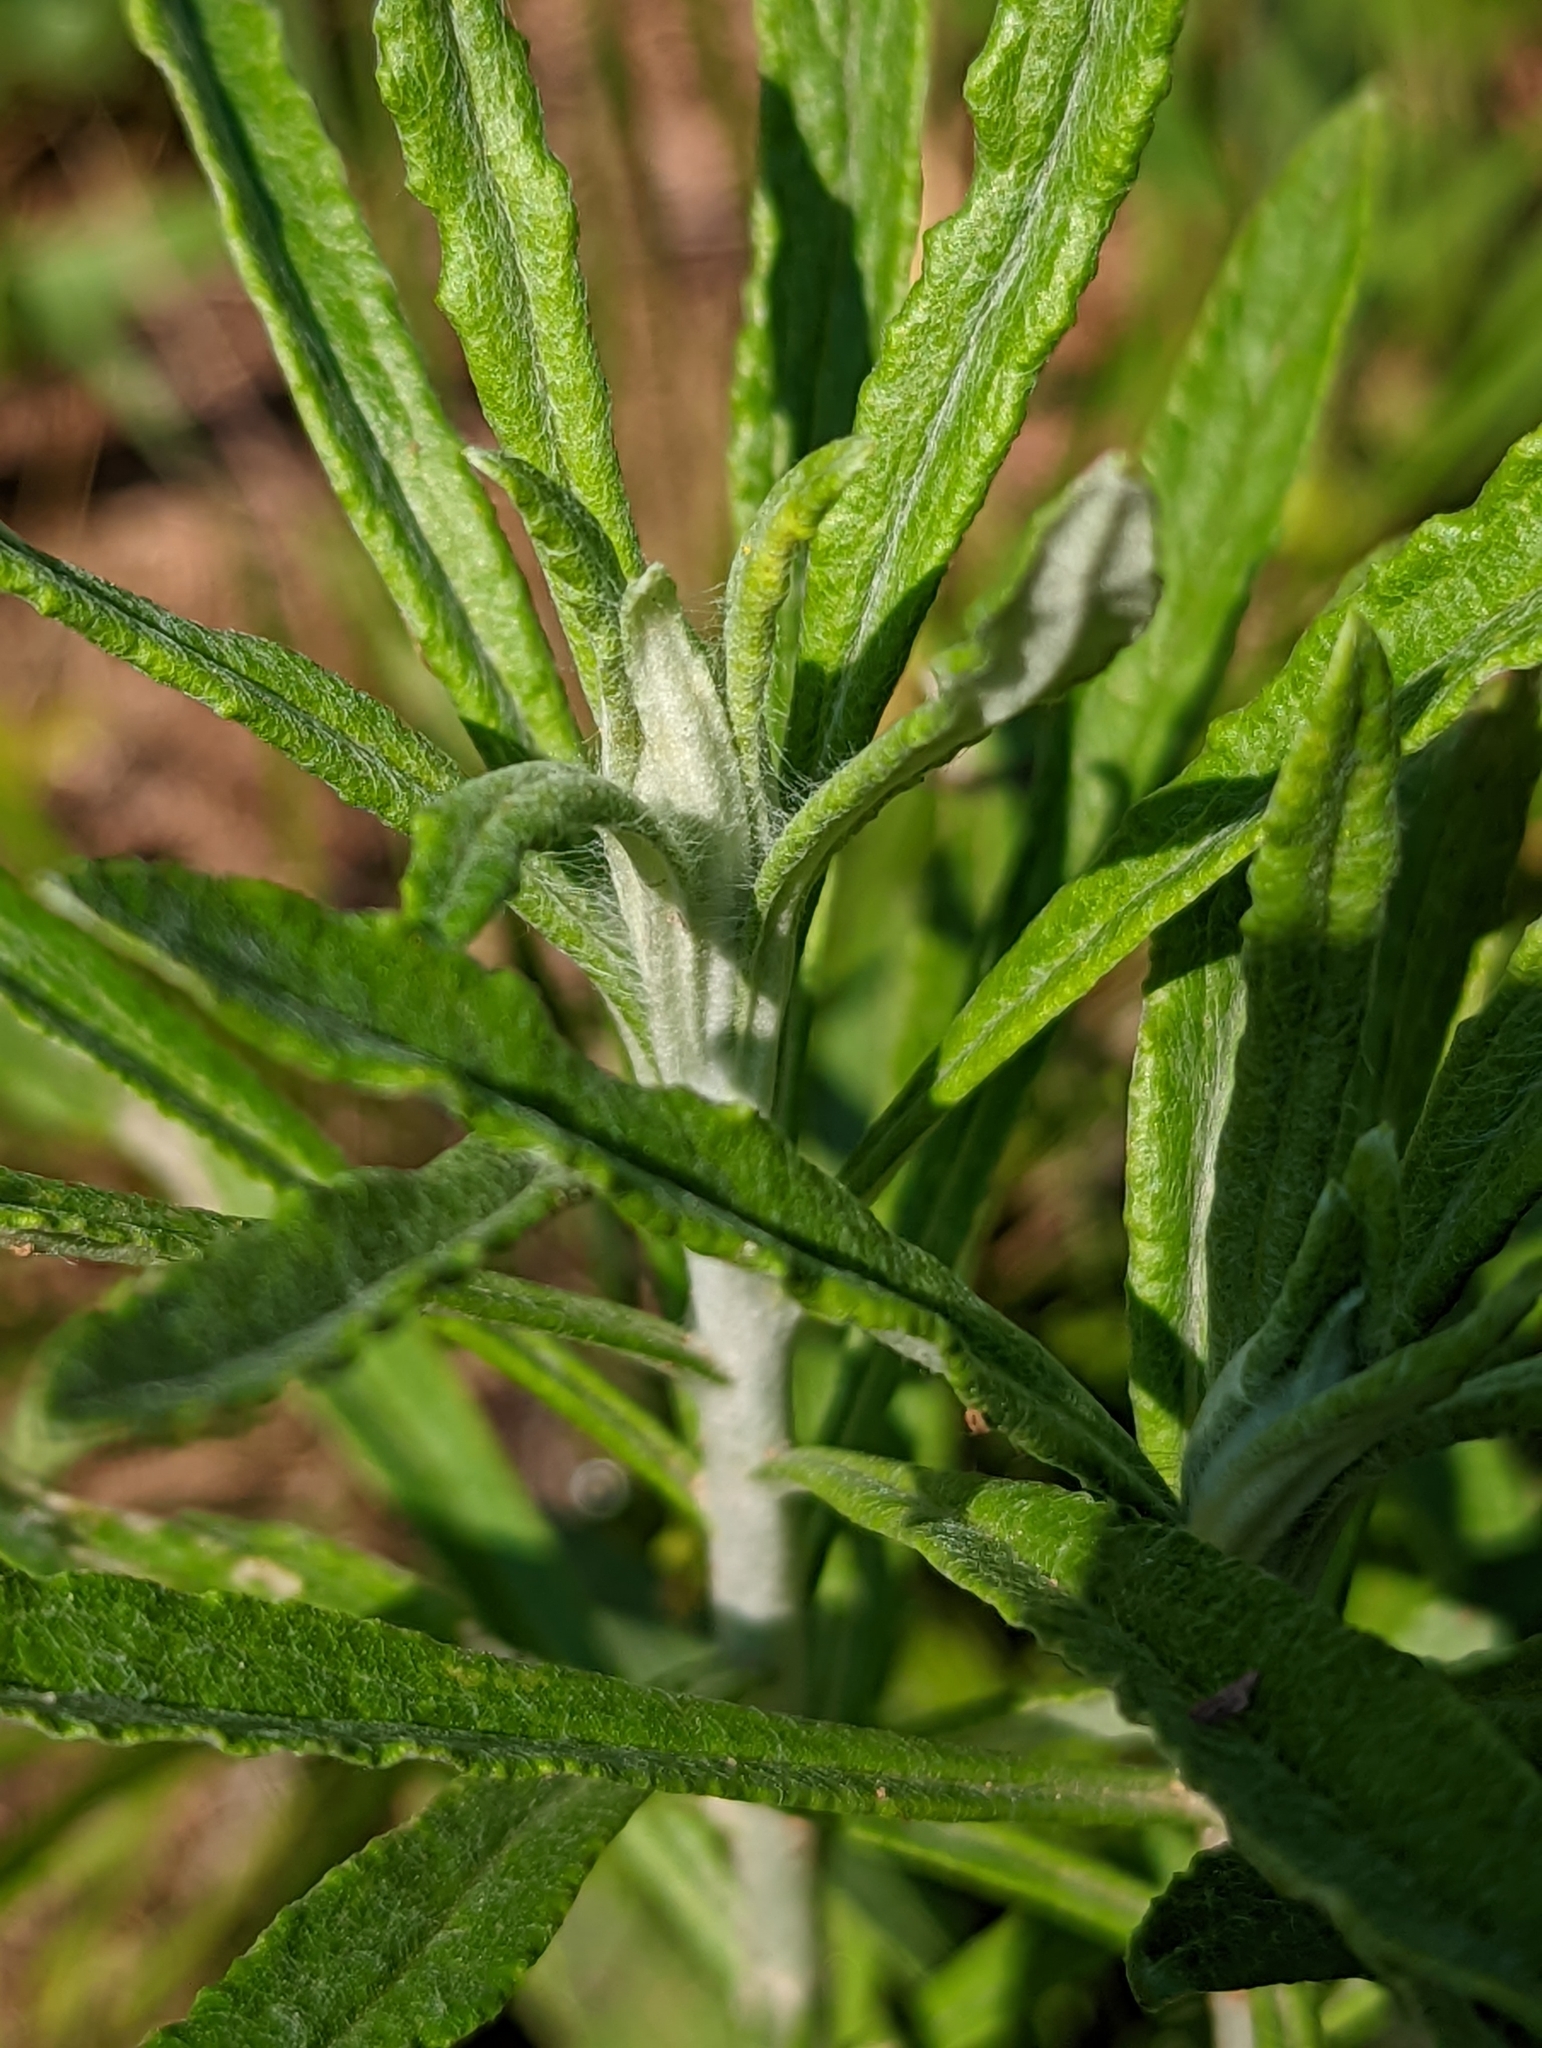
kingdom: Plantae
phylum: Tracheophyta
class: Magnoliopsida
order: Asterales
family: Asteraceae
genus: Pseudognaphalium
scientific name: Pseudognaphalium obtusifolium
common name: Eastern rabbit-tobacco
